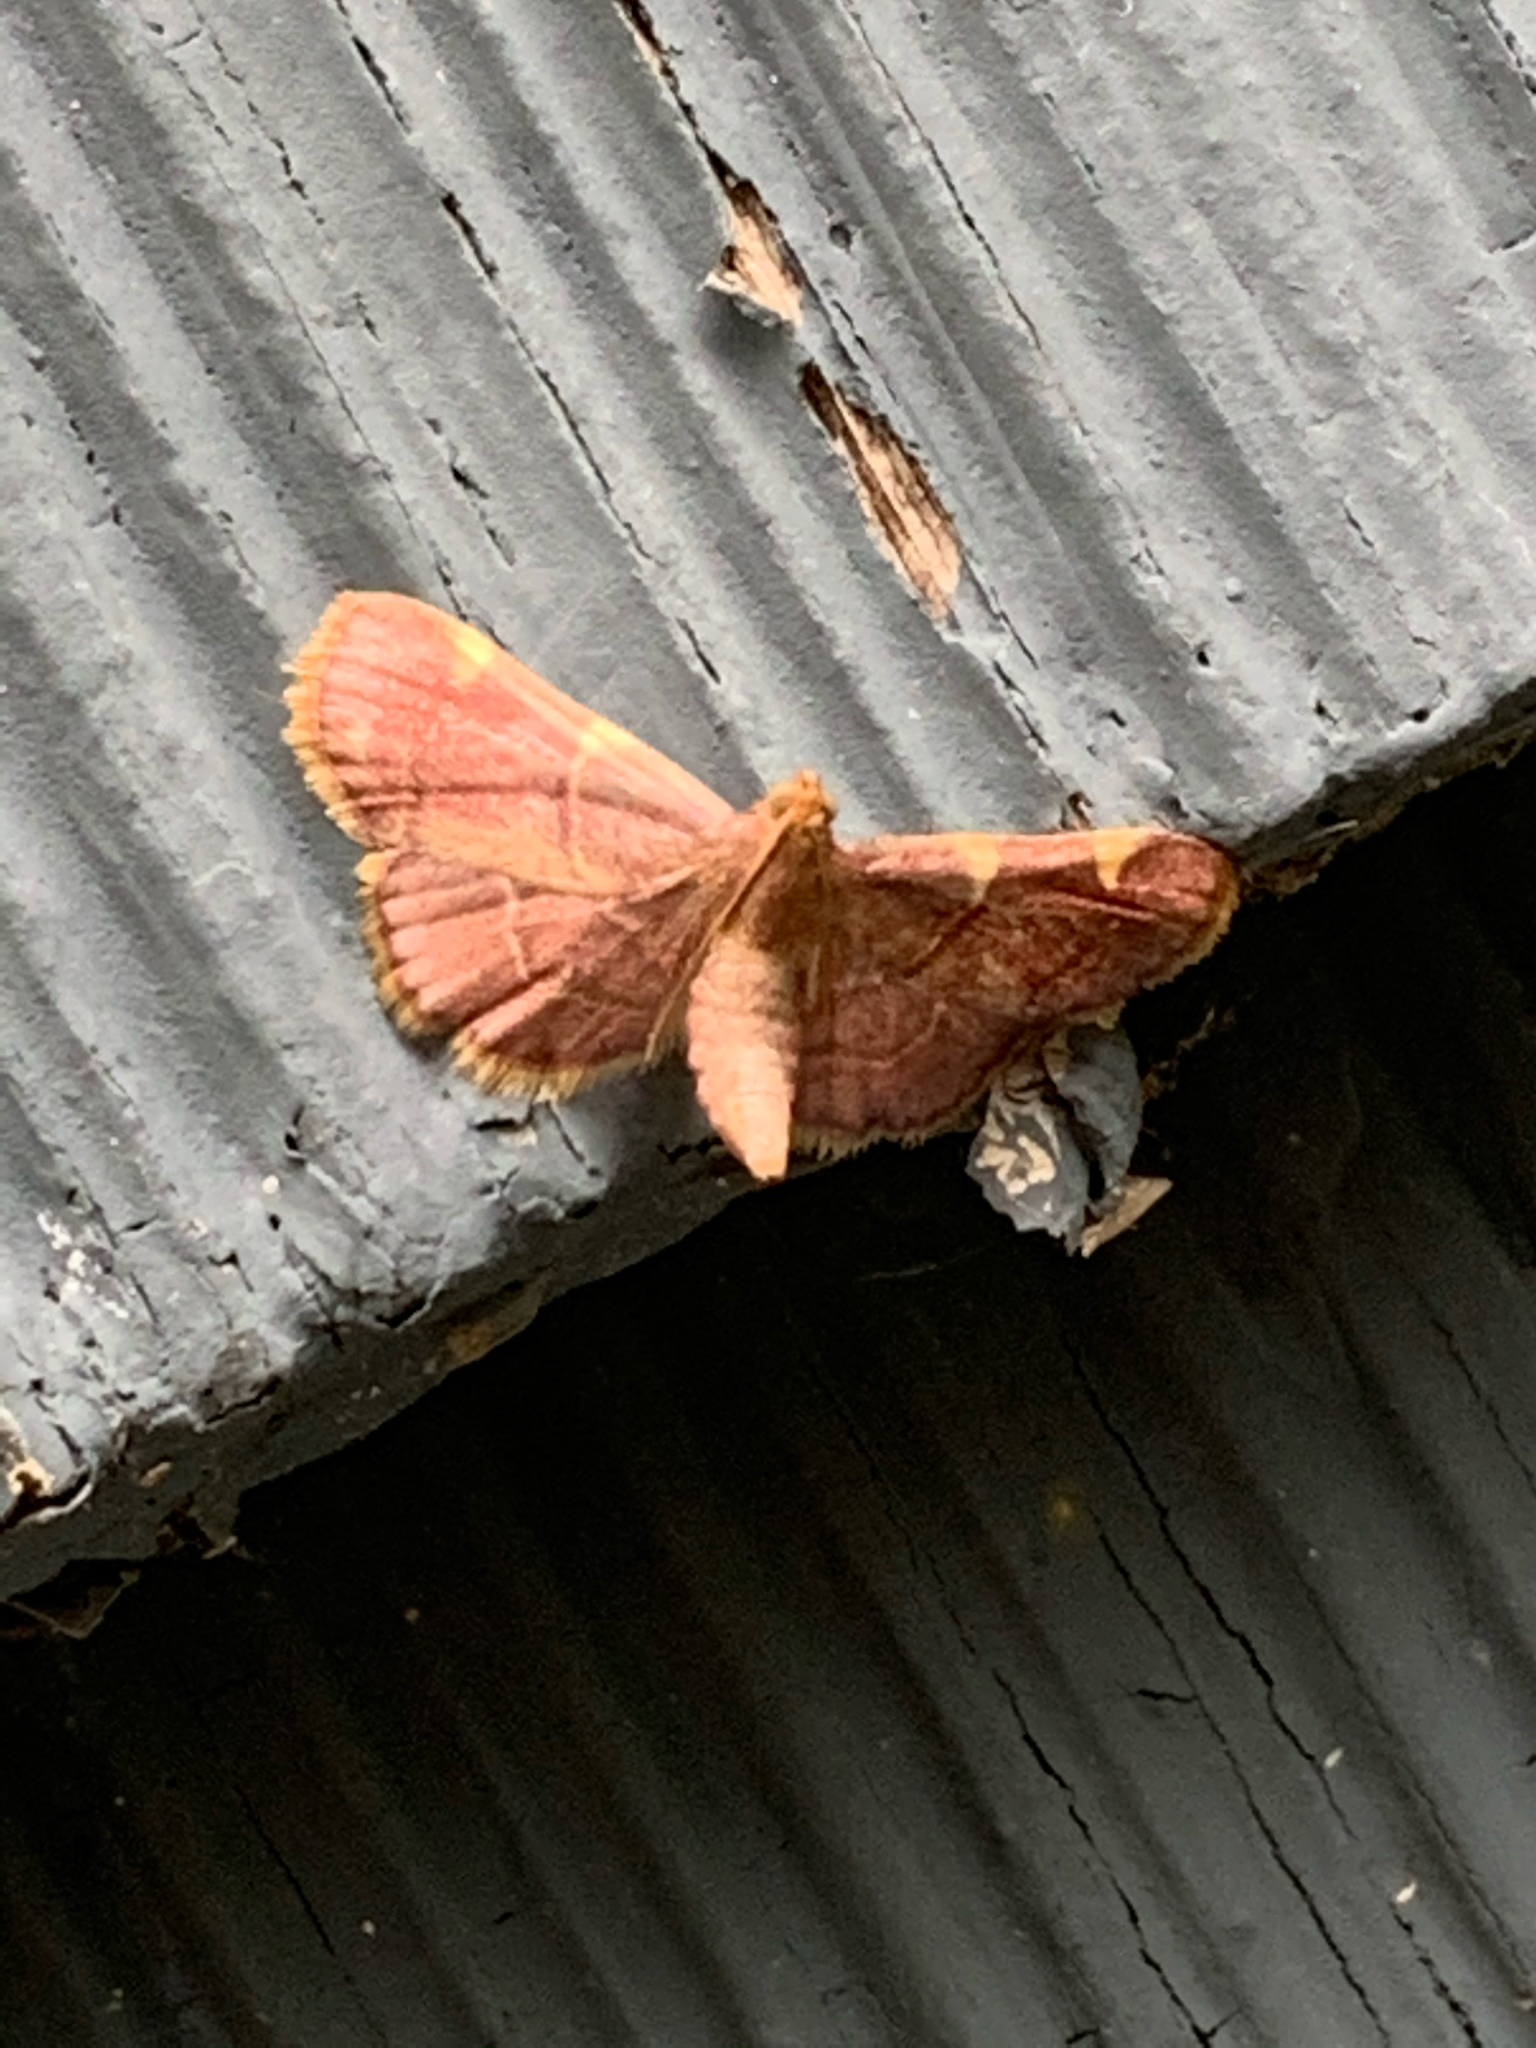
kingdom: Animalia
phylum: Arthropoda
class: Insecta
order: Lepidoptera
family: Pyralidae
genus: Hypsopygia
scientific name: Hypsopygia olinalis
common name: Yellow-fringed dolichomia moth
